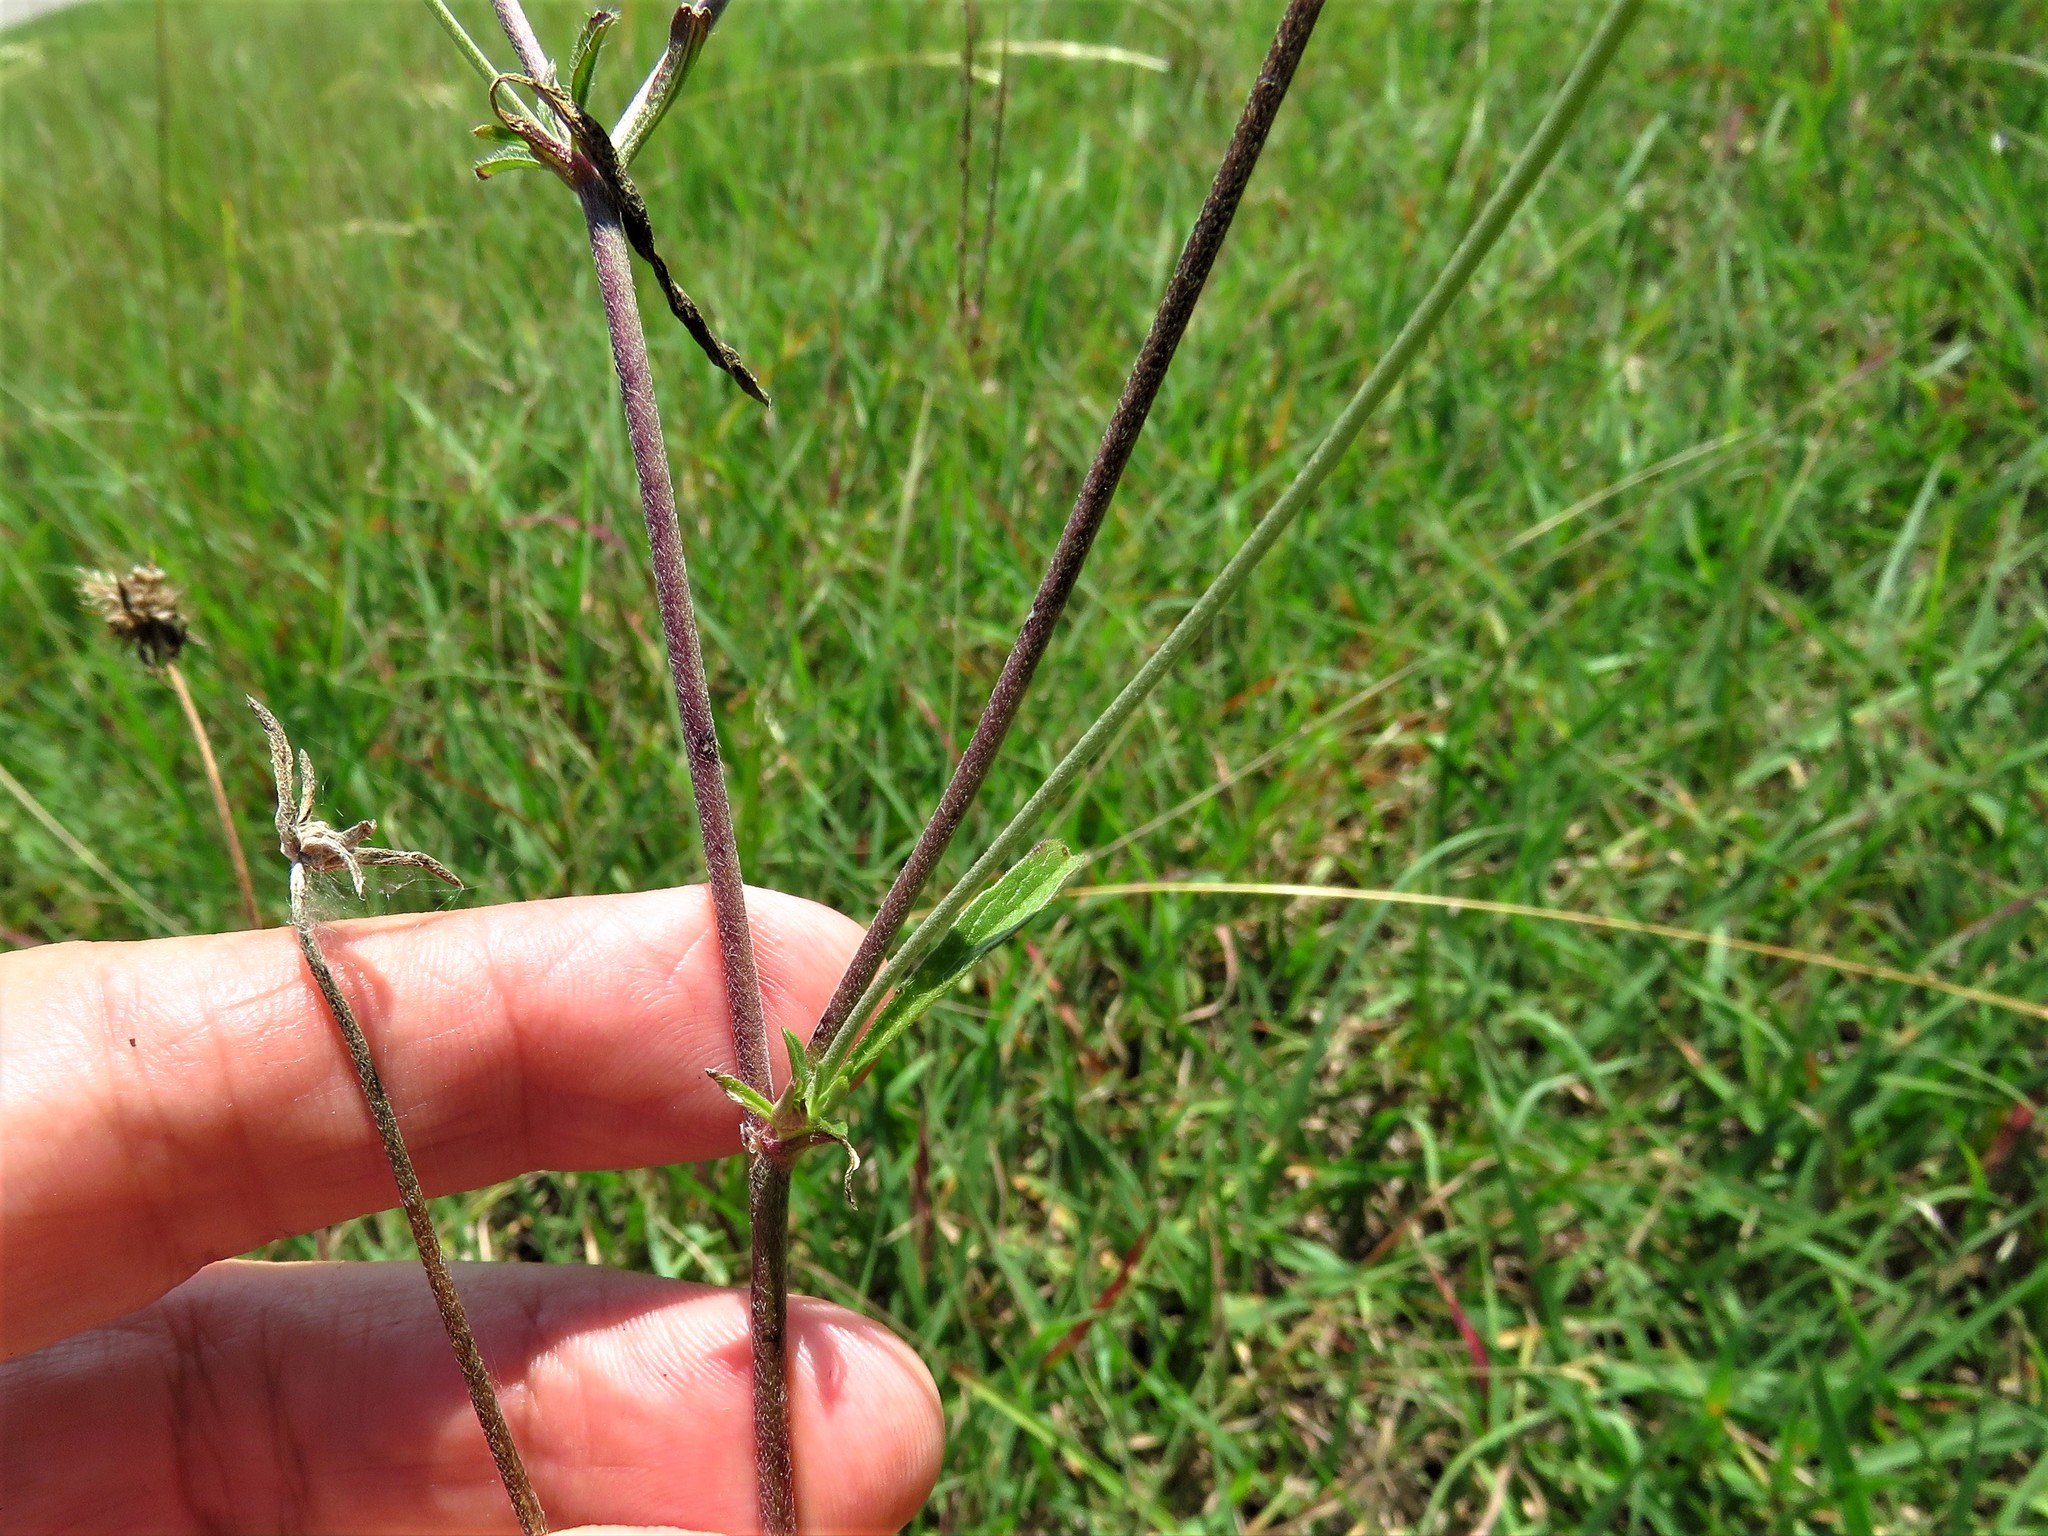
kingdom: Plantae
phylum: Tracheophyta
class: Magnoliopsida
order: Dipsacales
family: Caprifoliaceae
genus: Sixalix
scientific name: Sixalix atropurpurea
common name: Sweet scabious
